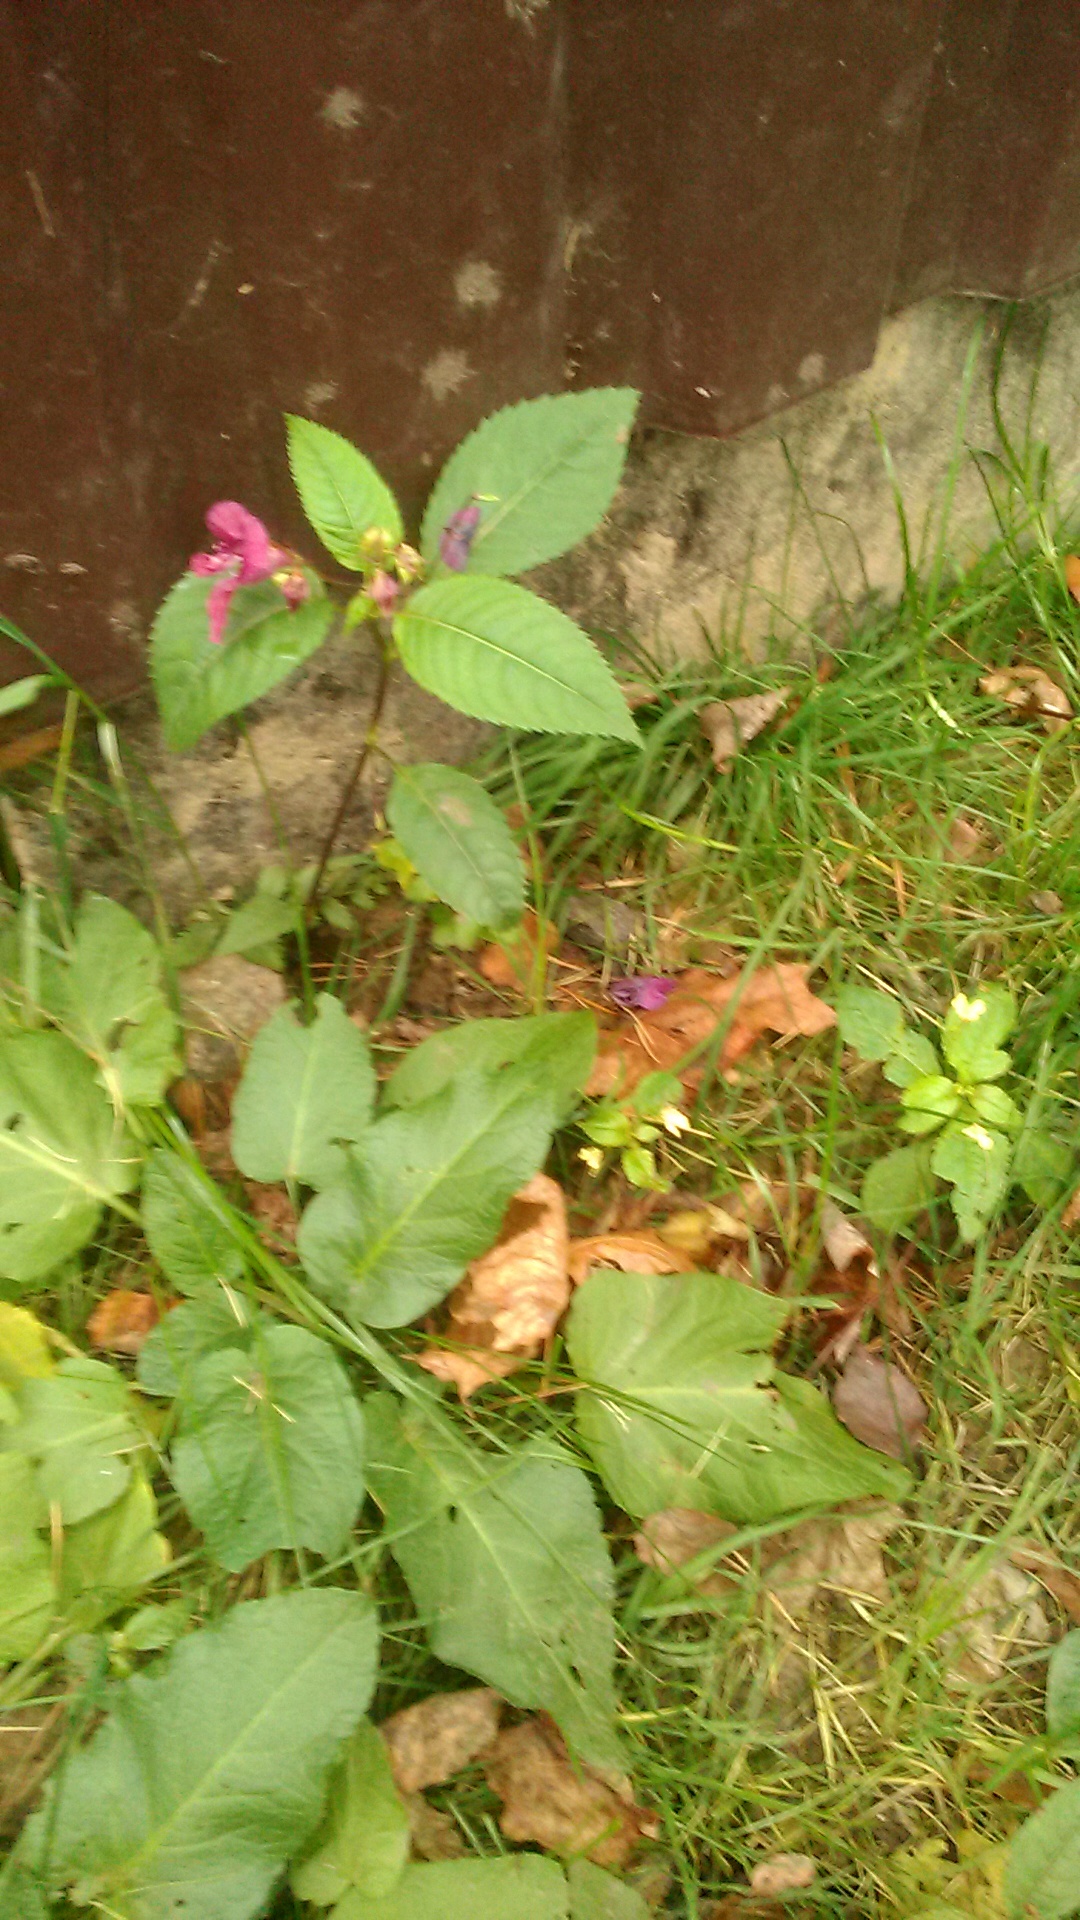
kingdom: Plantae
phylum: Tracheophyta
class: Magnoliopsida
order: Ericales
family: Balsaminaceae
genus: Impatiens
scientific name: Impatiens glandulifera
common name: Himalayan balsam
